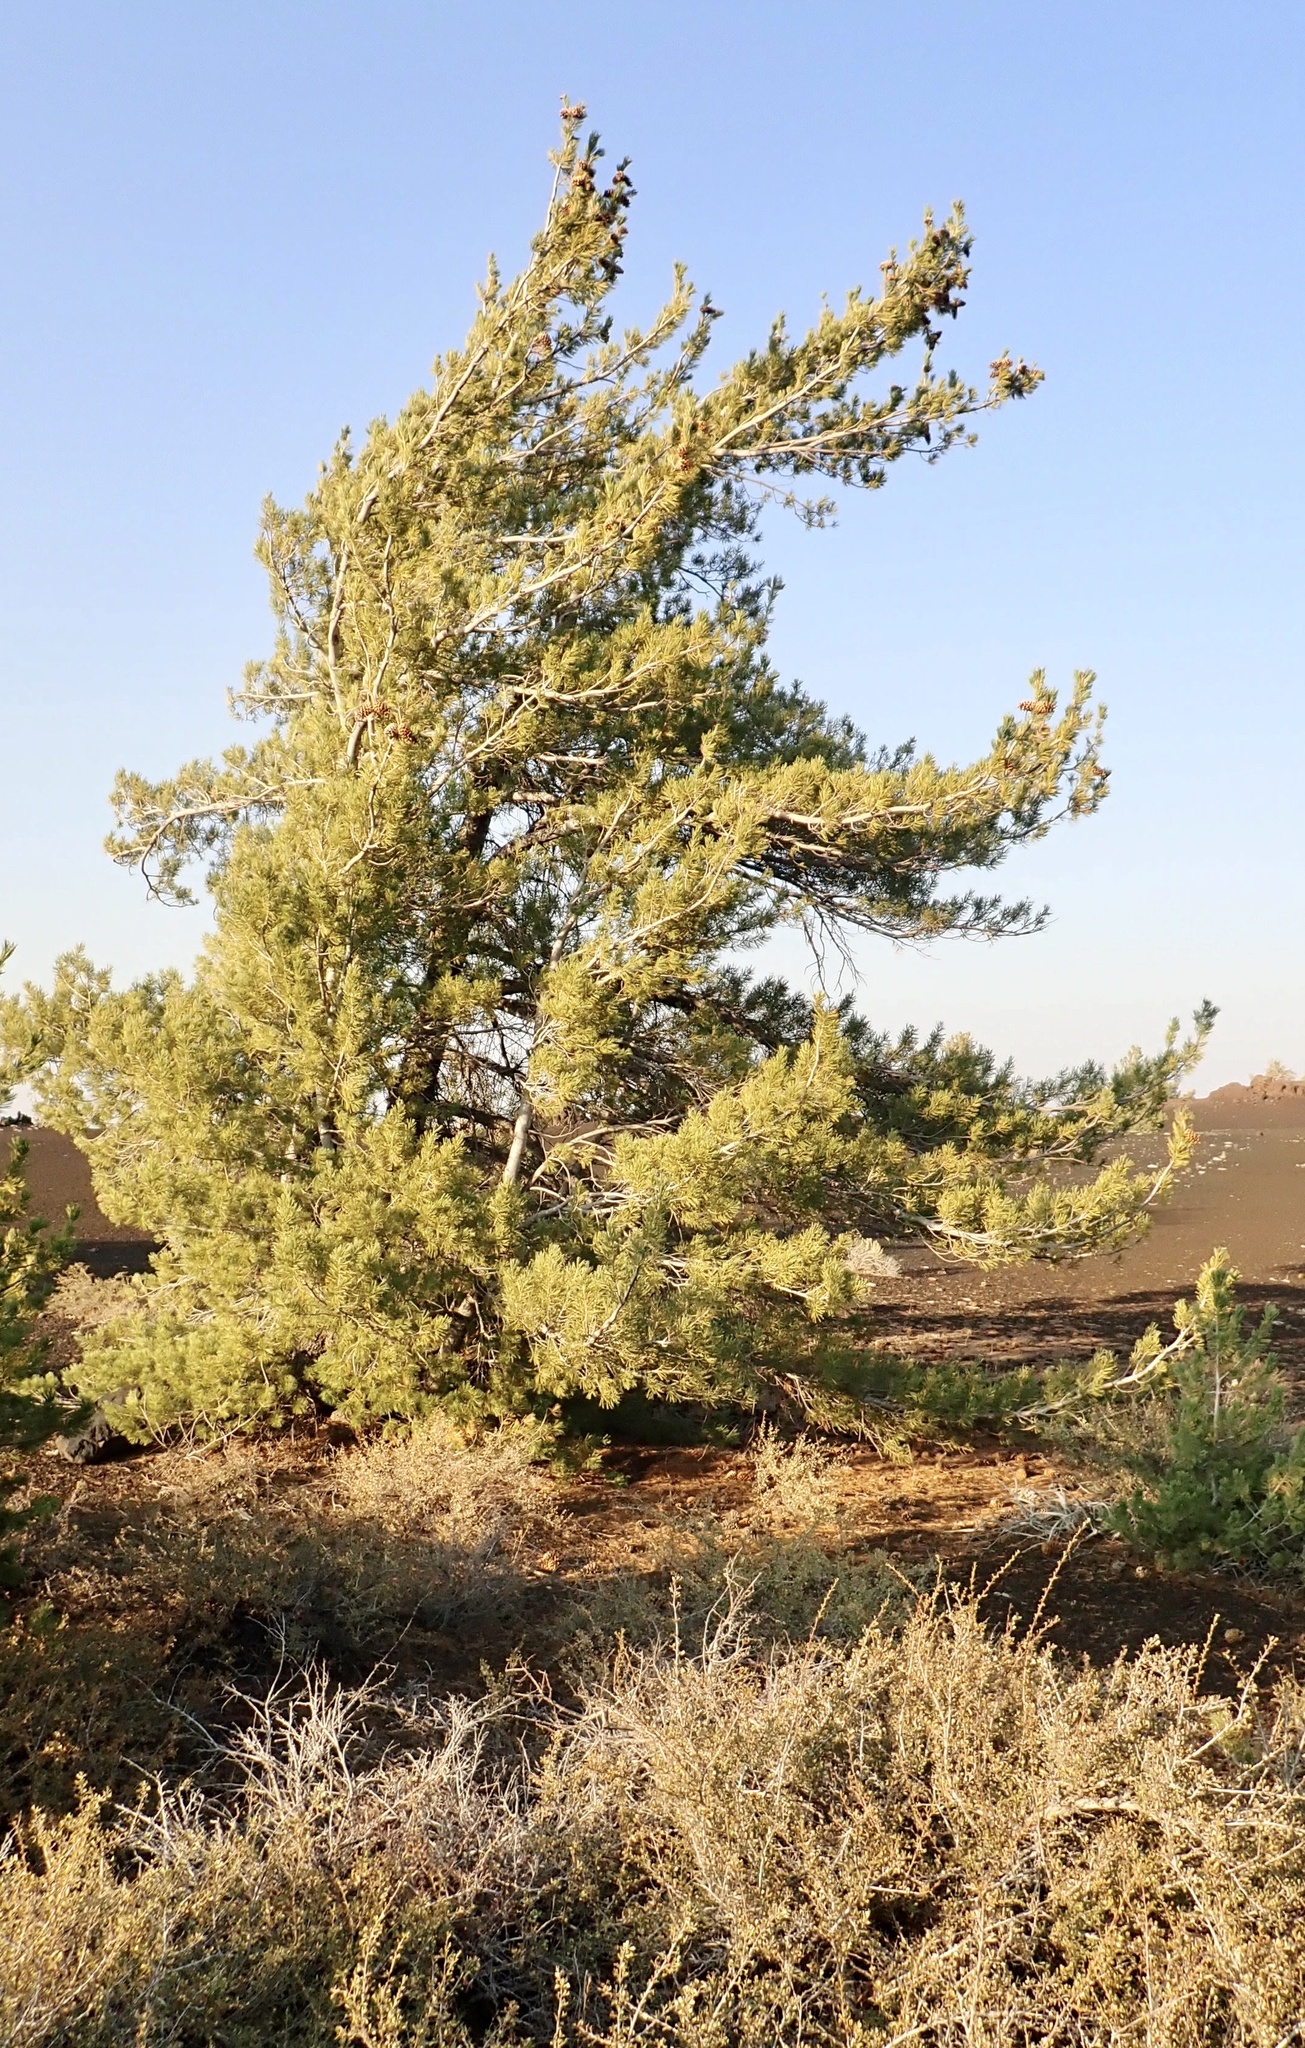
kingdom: Plantae
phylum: Tracheophyta
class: Pinopsida
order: Pinales
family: Pinaceae
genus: Pinus
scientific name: Pinus flexilis
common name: Limber pine
